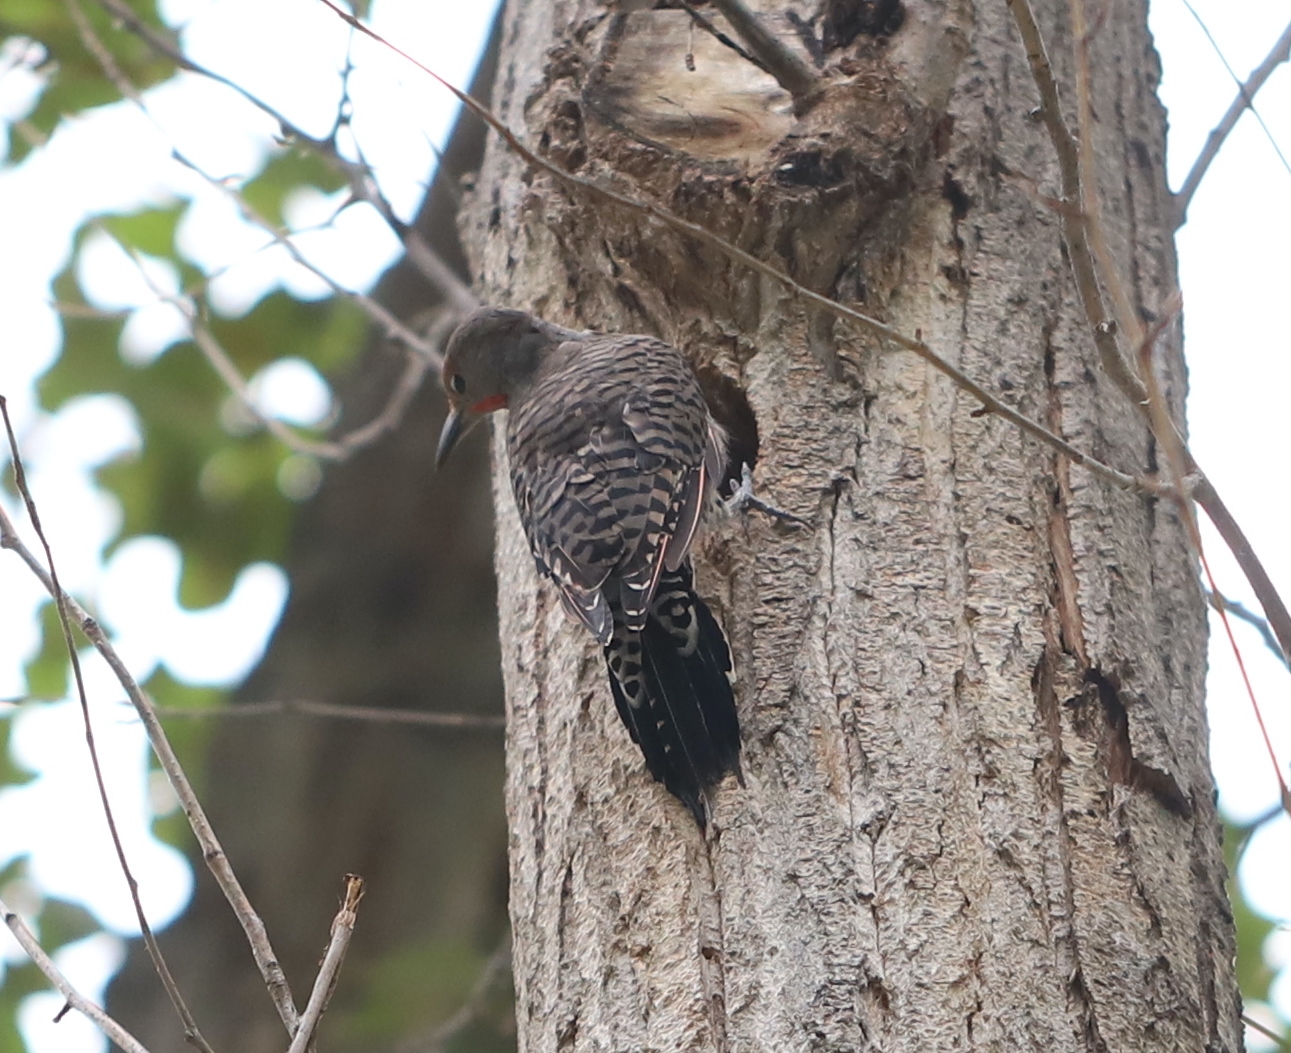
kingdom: Animalia
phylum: Chordata
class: Aves
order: Piciformes
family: Picidae
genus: Colaptes
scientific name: Colaptes auratus
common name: Northern flicker
